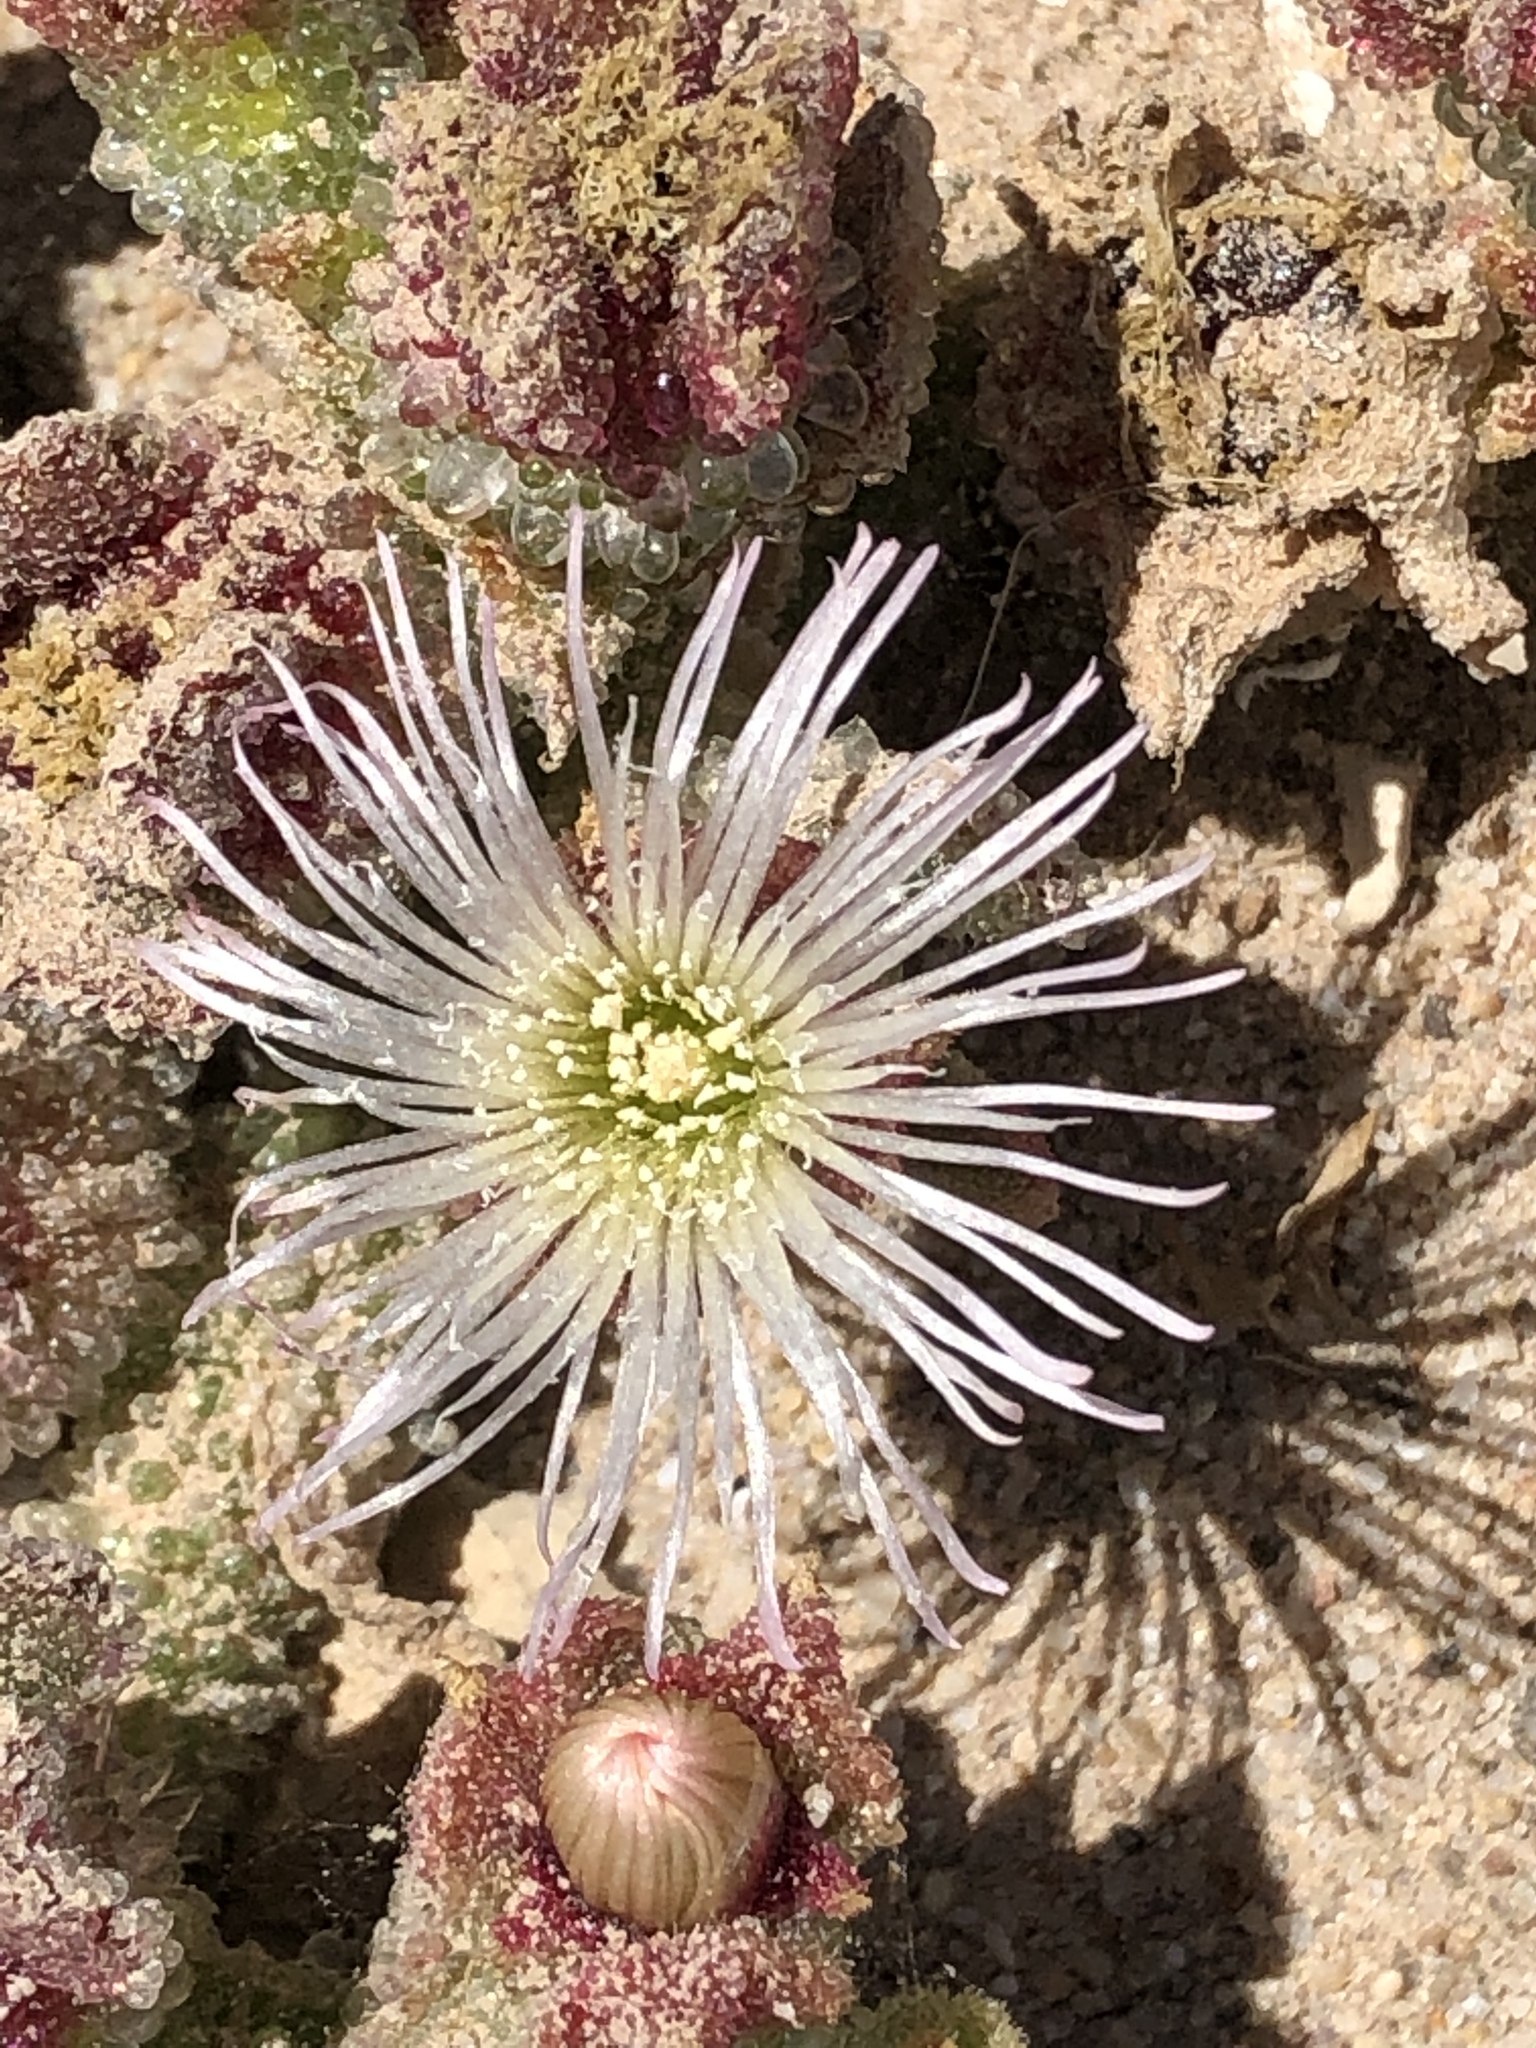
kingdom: Plantae
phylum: Tracheophyta
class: Magnoliopsida
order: Caryophyllales
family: Aizoaceae
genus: Mesembryanthemum
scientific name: Mesembryanthemum crystallinum
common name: Common iceplant
